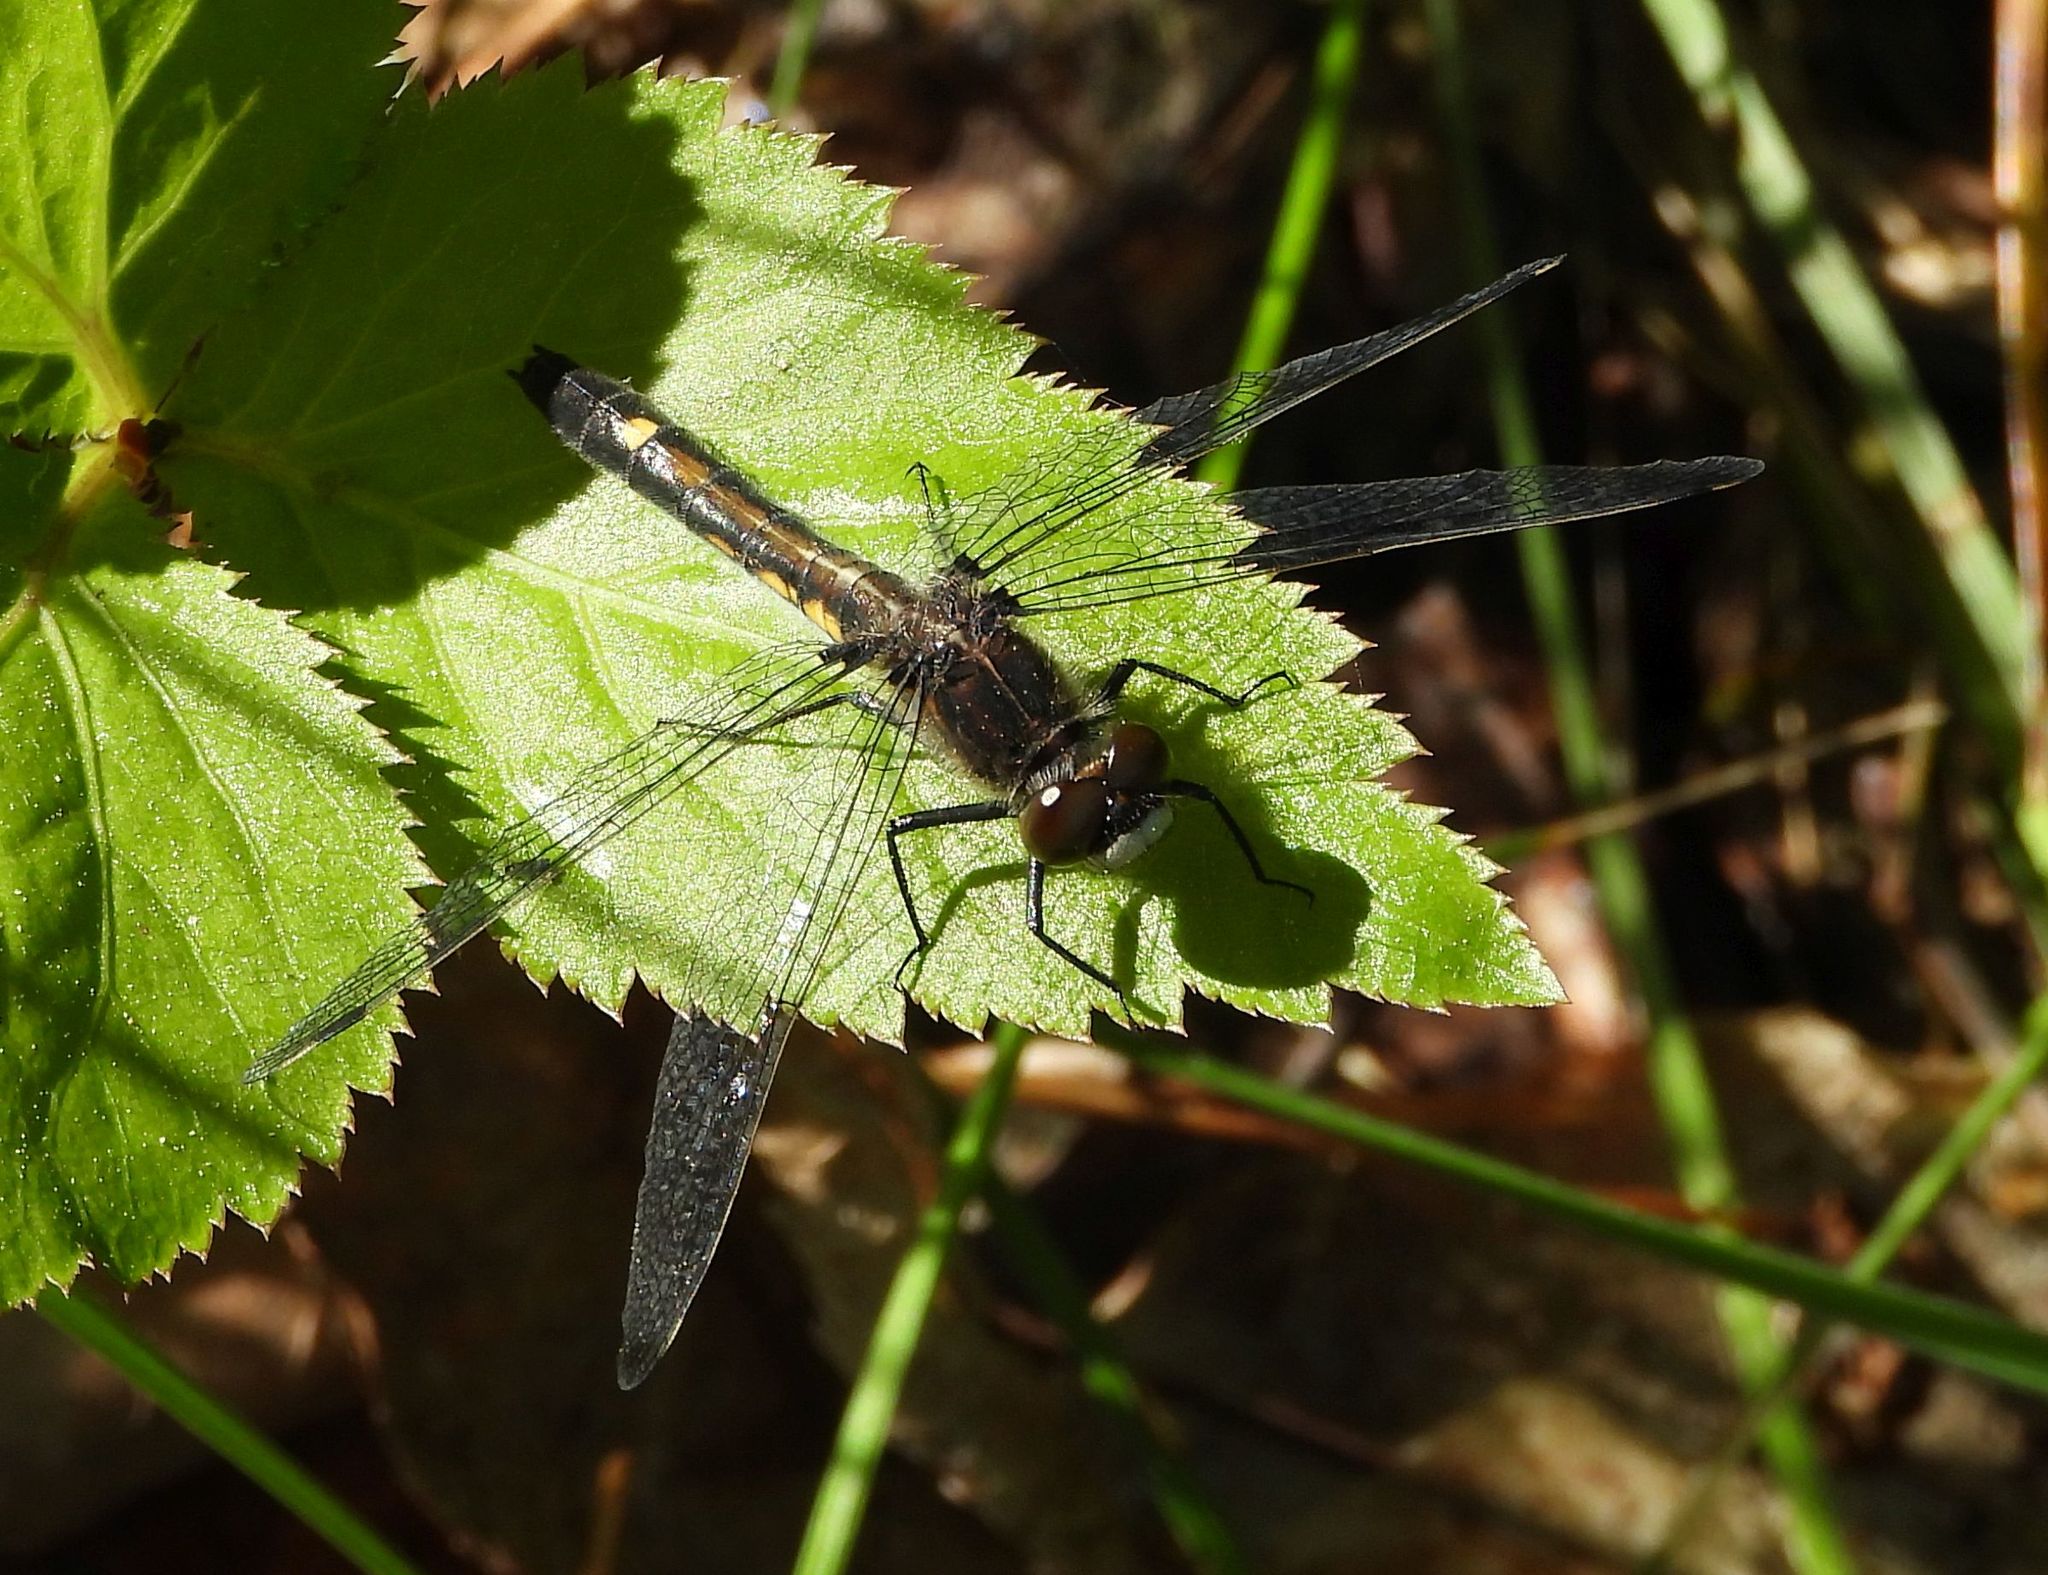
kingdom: Animalia
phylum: Arthropoda
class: Insecta
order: Odonata
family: Libellulidae
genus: Leucorrhinia
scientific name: Leucorrhinia intacta
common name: Dot-tailed whiteface
